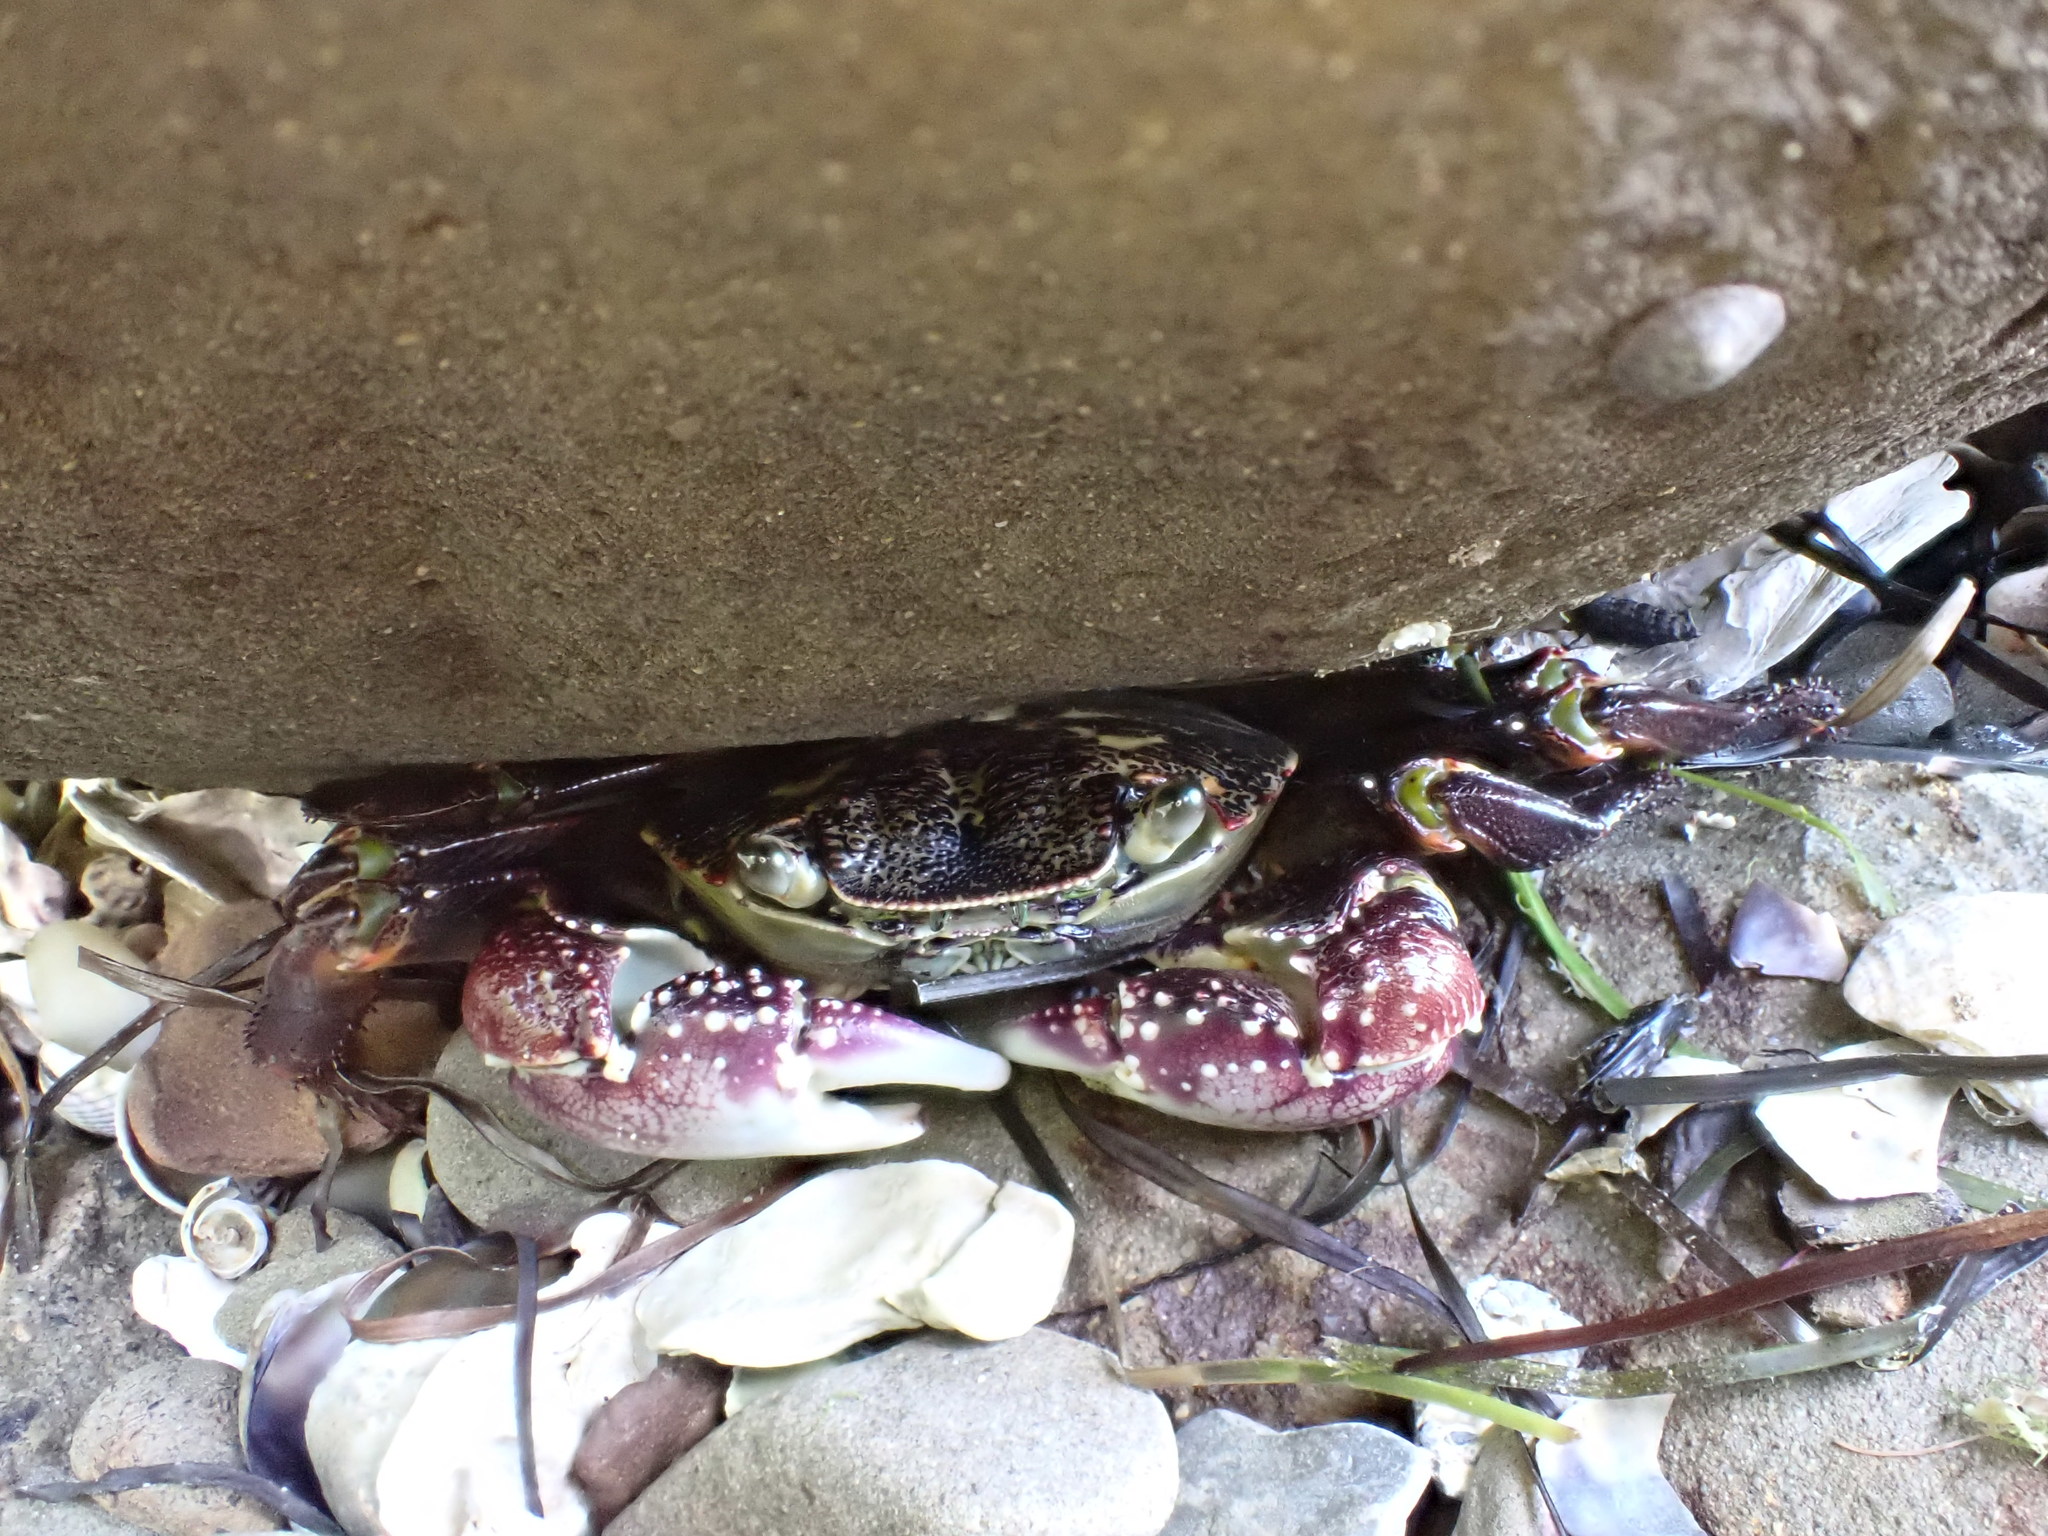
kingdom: Animalia
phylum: Arthropoda
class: Malacostraca
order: Decapoda
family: Grapsidae
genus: Leptograpsus
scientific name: Leptograpsus variegatus
